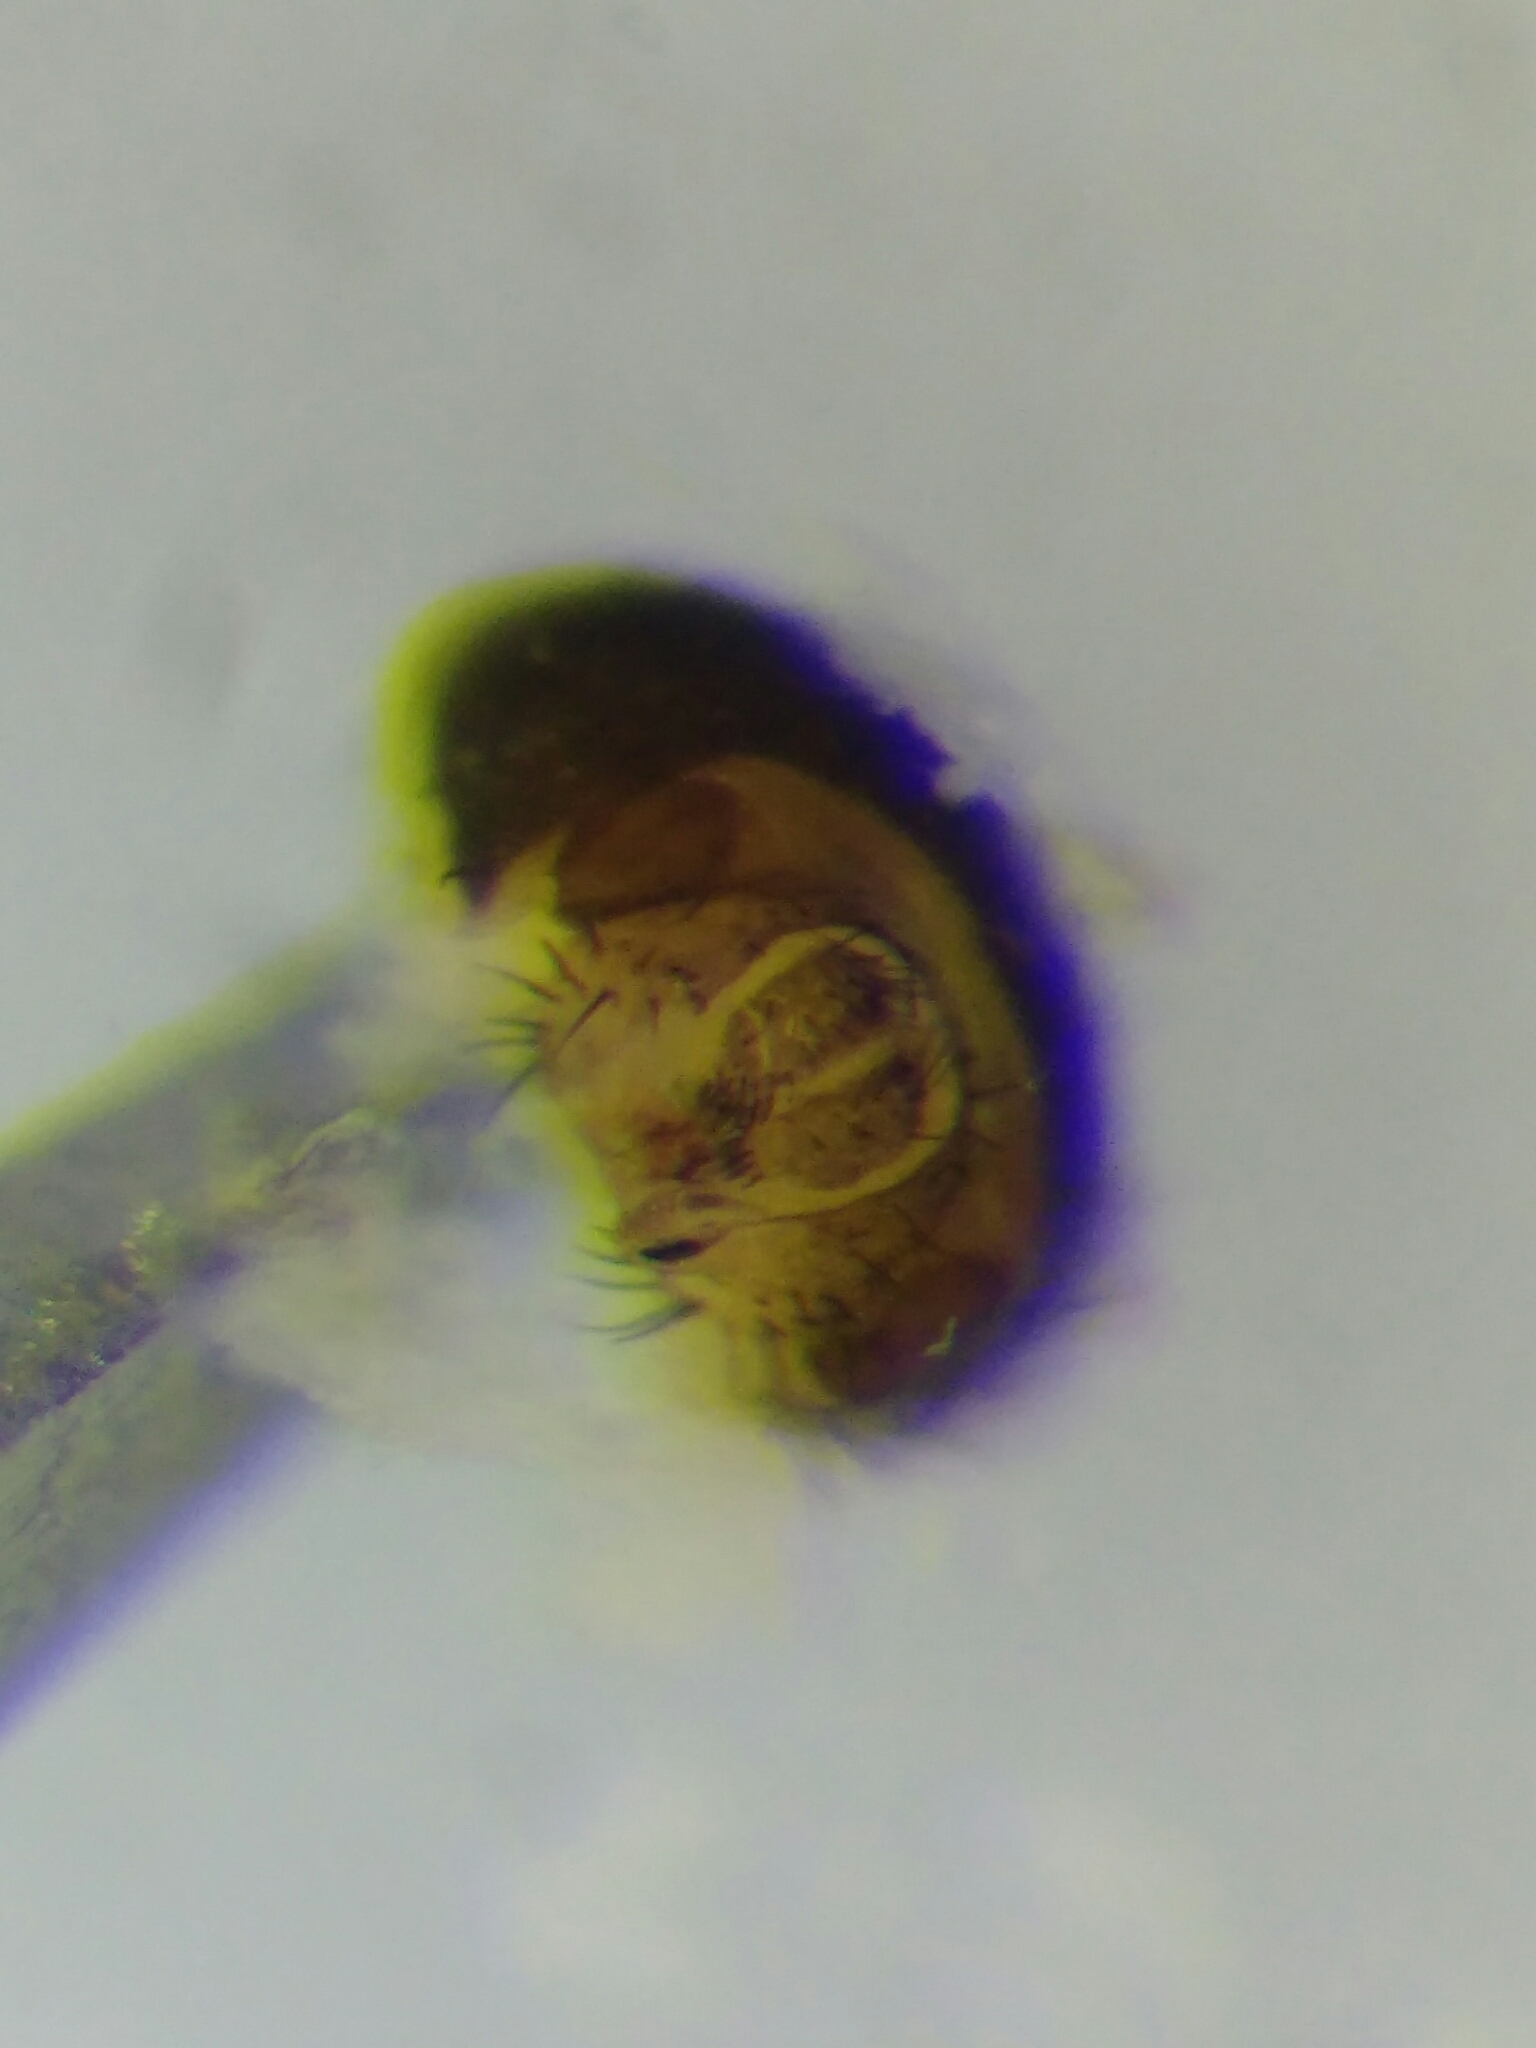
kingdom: Animalia
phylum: Arthropoda
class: Insecta
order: Diptera
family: Drosophilidae
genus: Drosophila
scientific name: Drosophila subobscura
